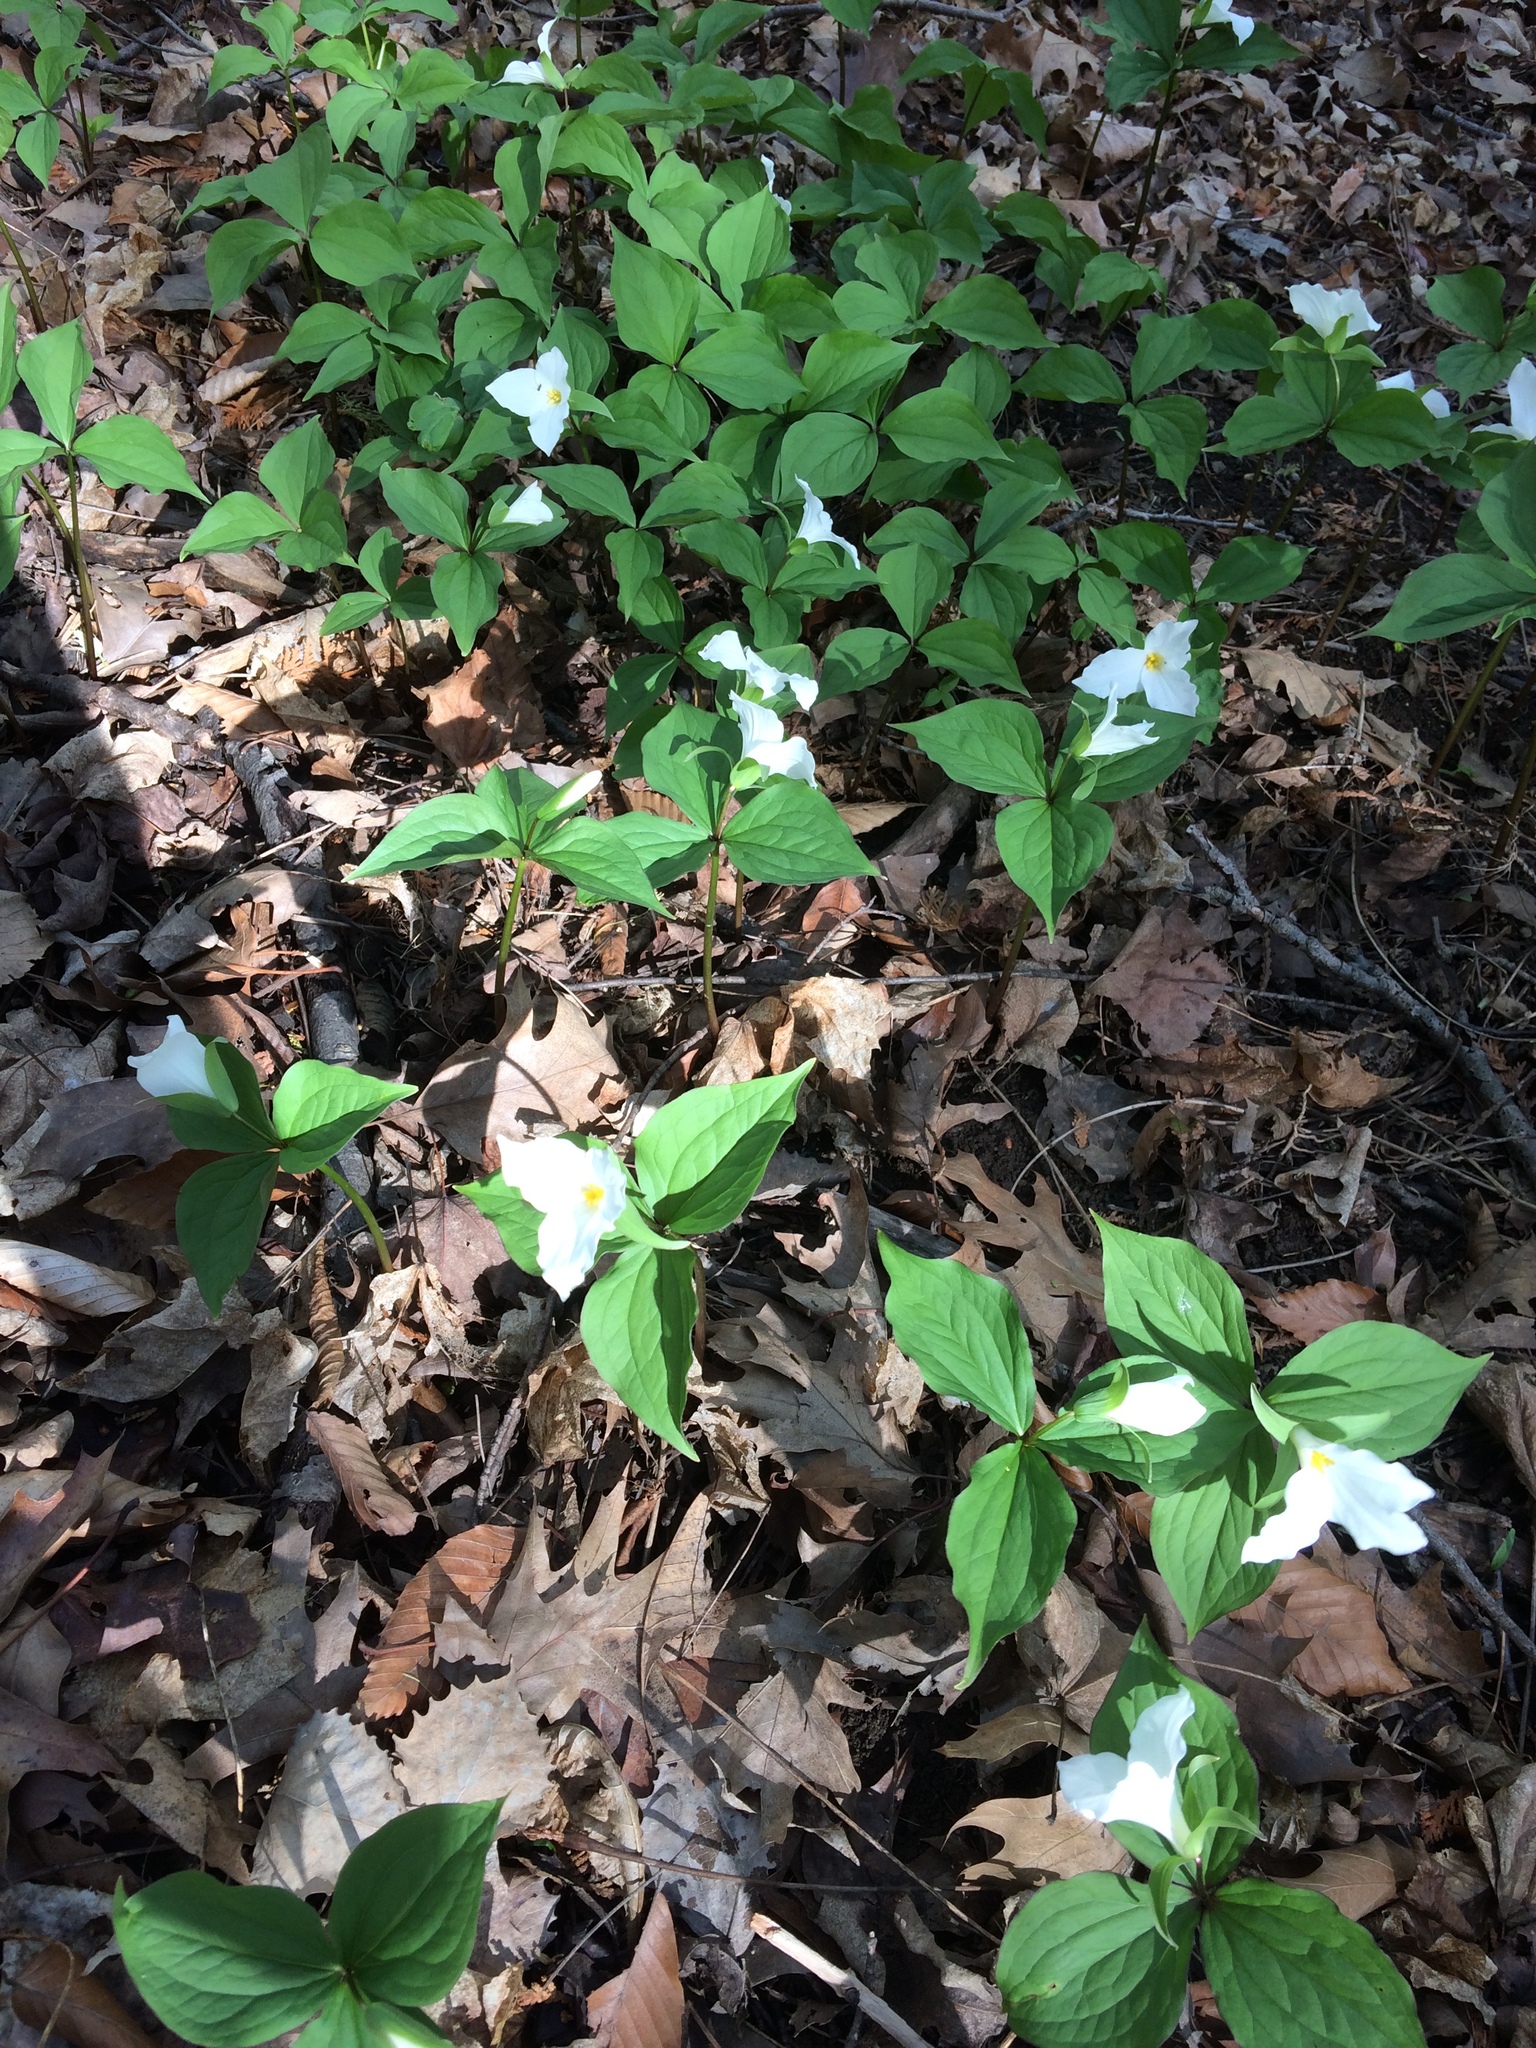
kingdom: Plantae
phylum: Tracheophyta
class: Liliopsida
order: Liliales
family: Melanthiaceae
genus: Trillium
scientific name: Trillium grandiflorum
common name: Great white trillium
